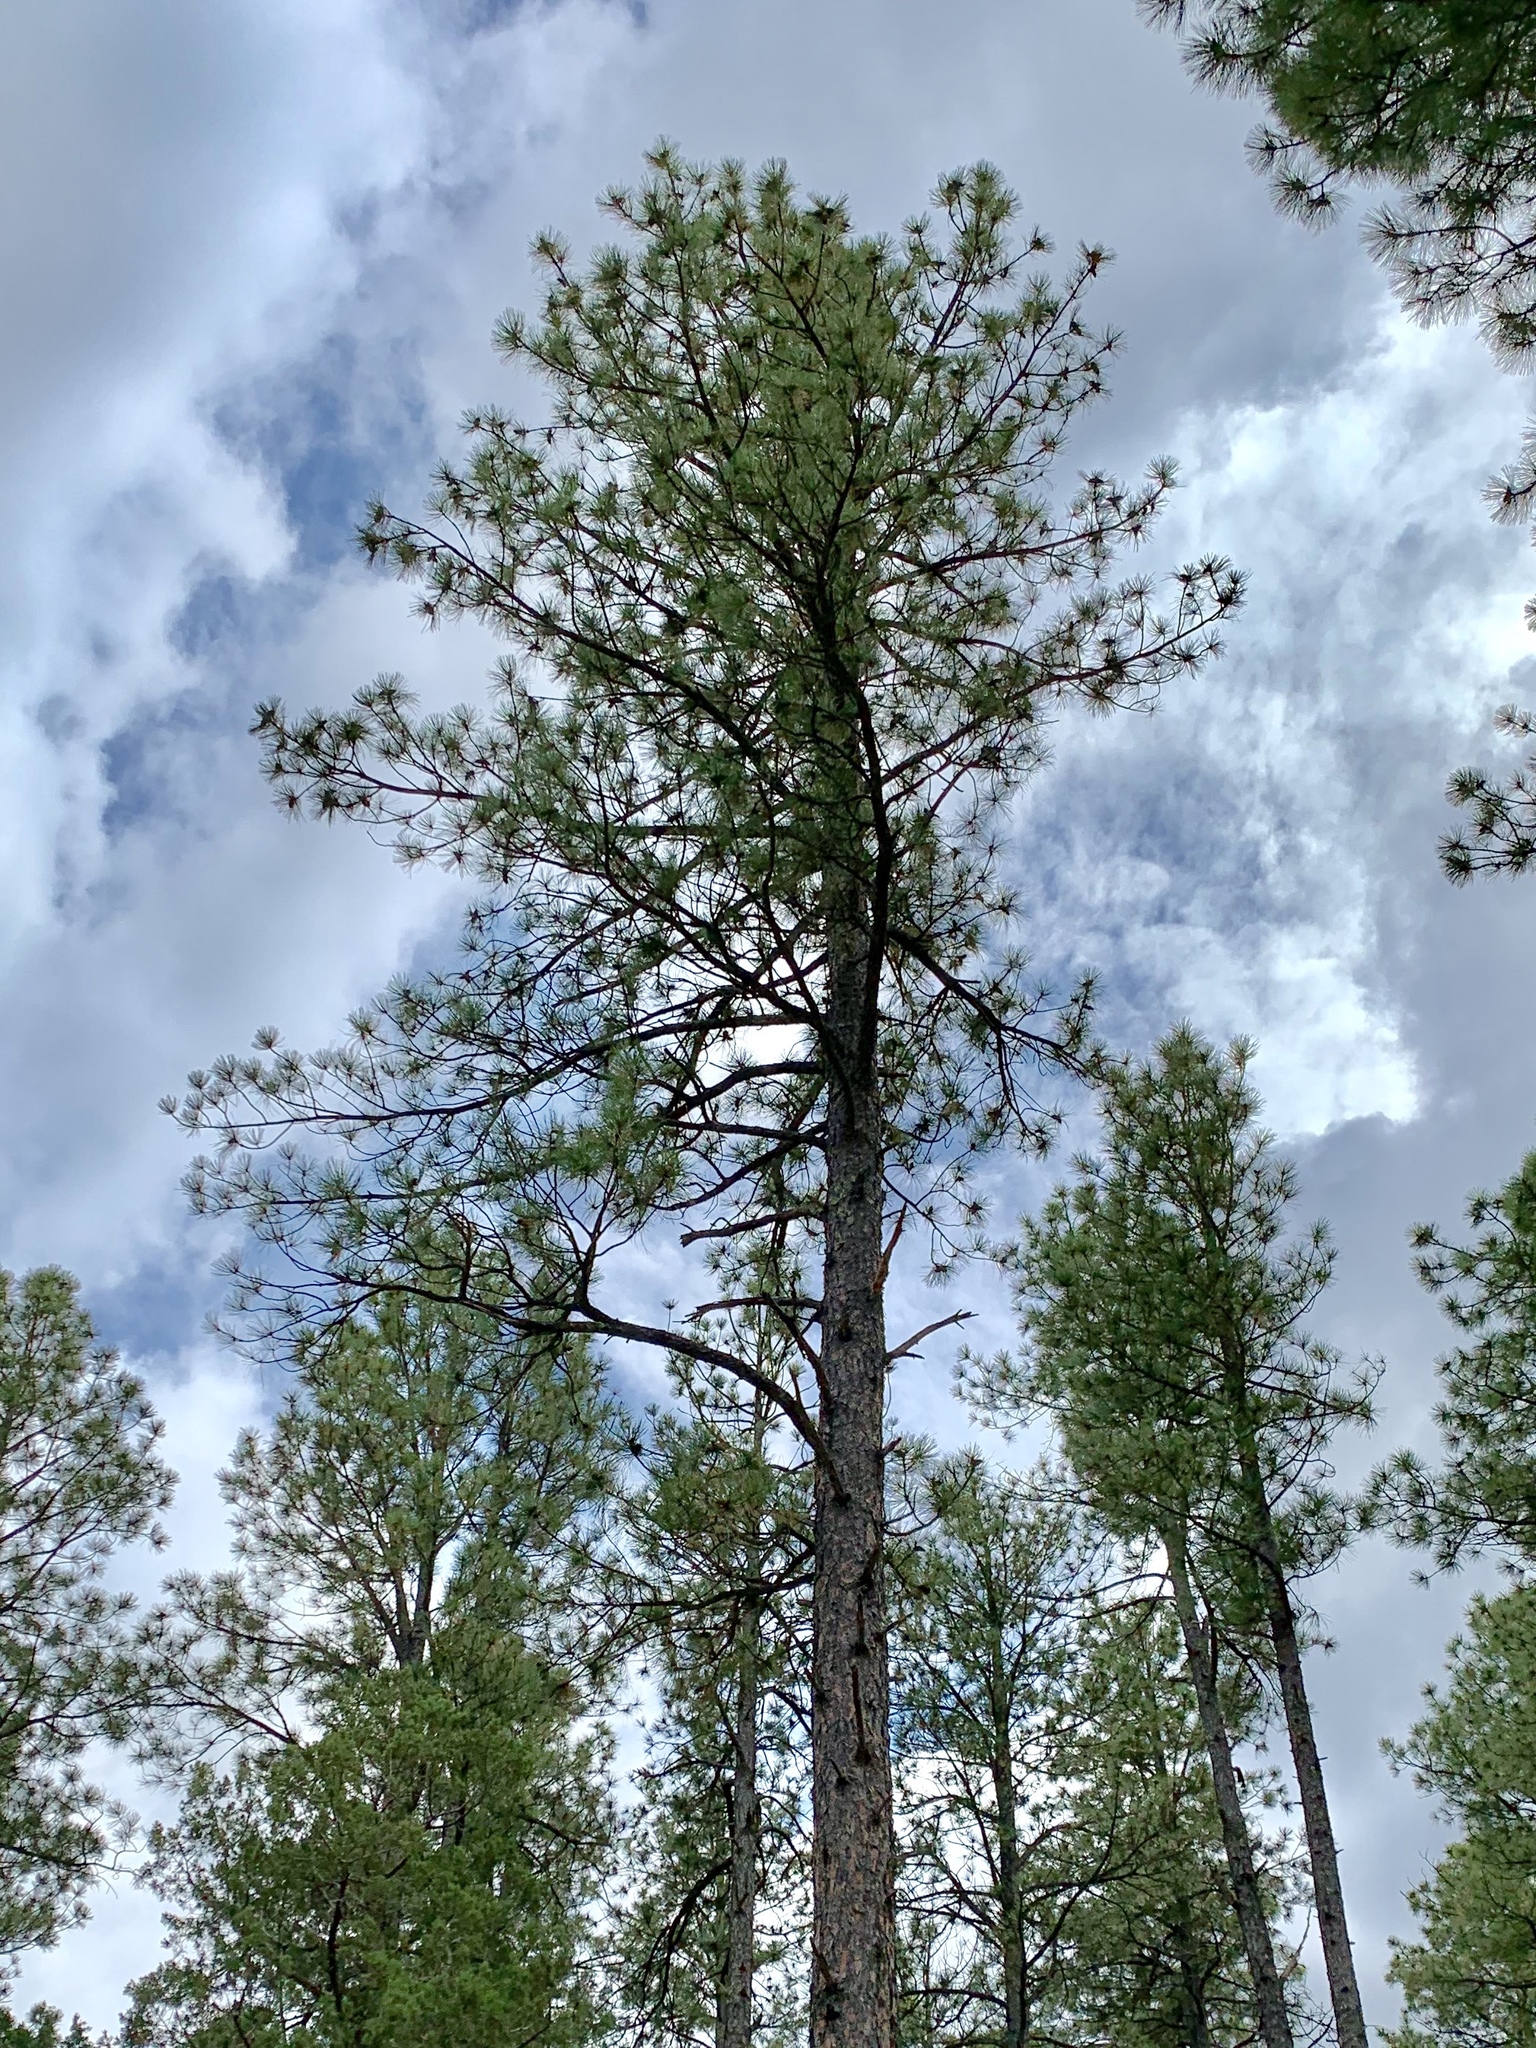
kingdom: Plantae
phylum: Tracheophyta
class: Pinopsida
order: Pinales
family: Pinaceae
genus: Pinus
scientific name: Pinus ponderosa
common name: Western yellow-pine
